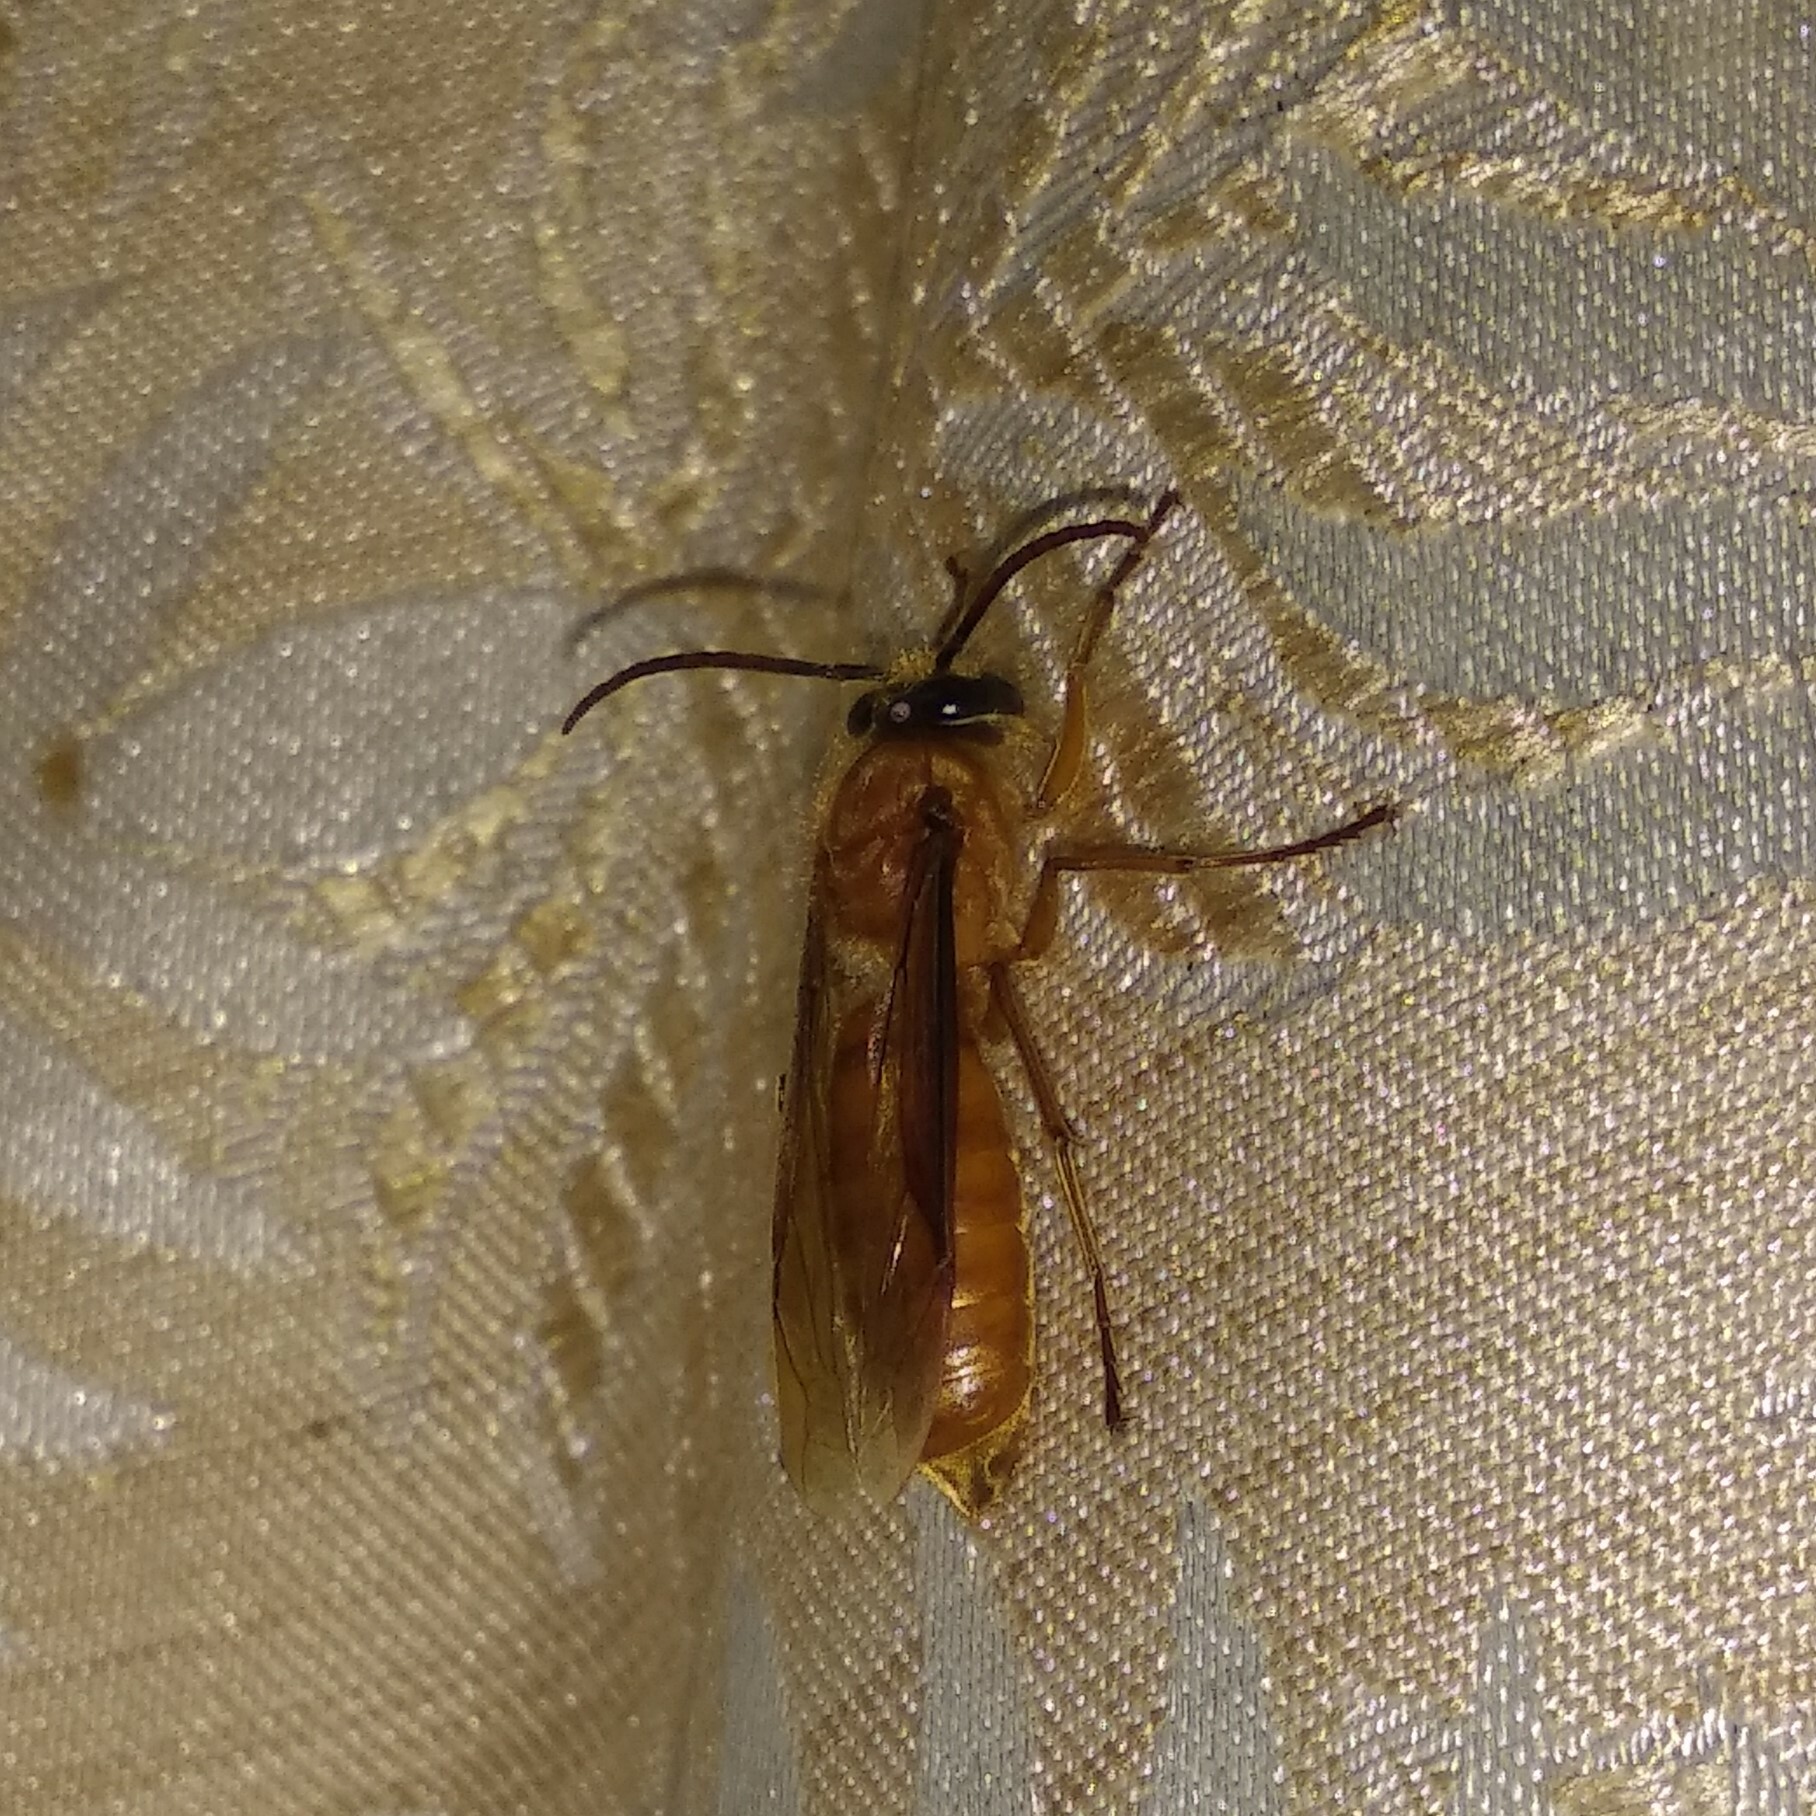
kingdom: Animalia
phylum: Arthropoda
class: Insecta
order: Hymenoptera
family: Vespidae
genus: Provespa
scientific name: Provespa barthelemyi
